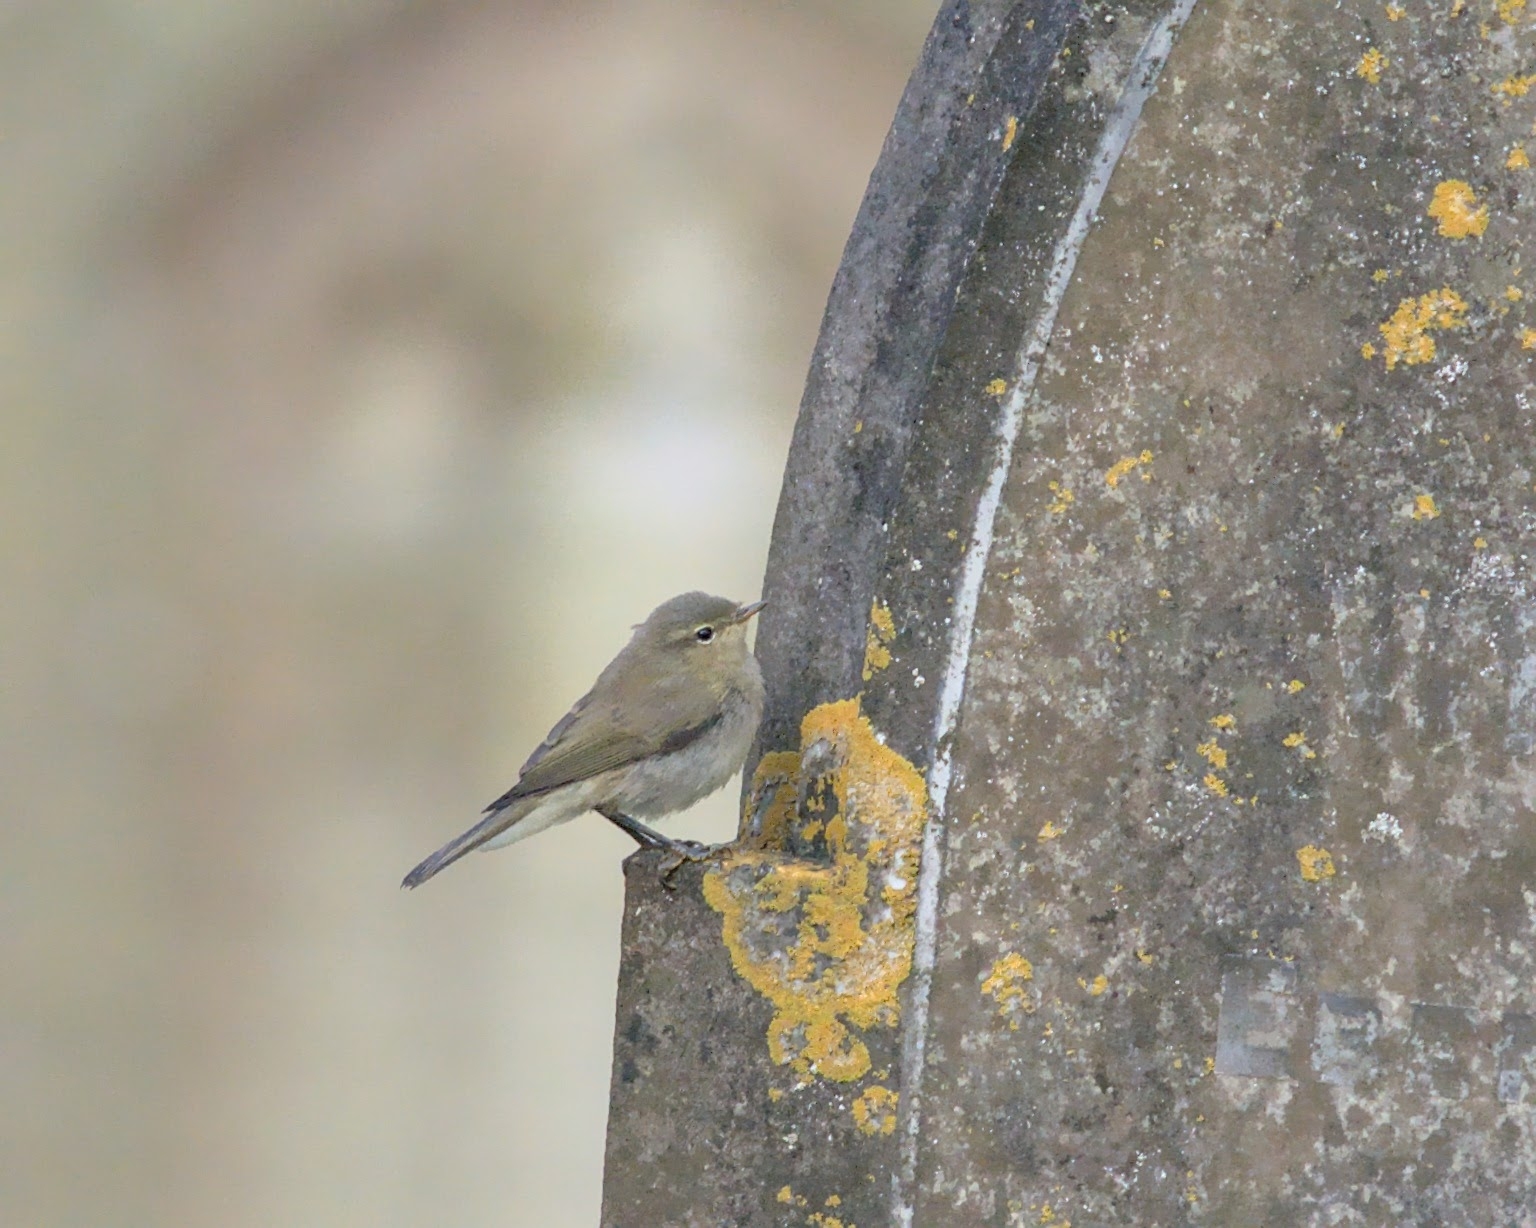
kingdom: Animalia
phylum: Chordata
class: Aves
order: Passeriformes
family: Phylloscopidae
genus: Phylloscopus
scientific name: Phylloscopus collybita
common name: Common chiffchaff
